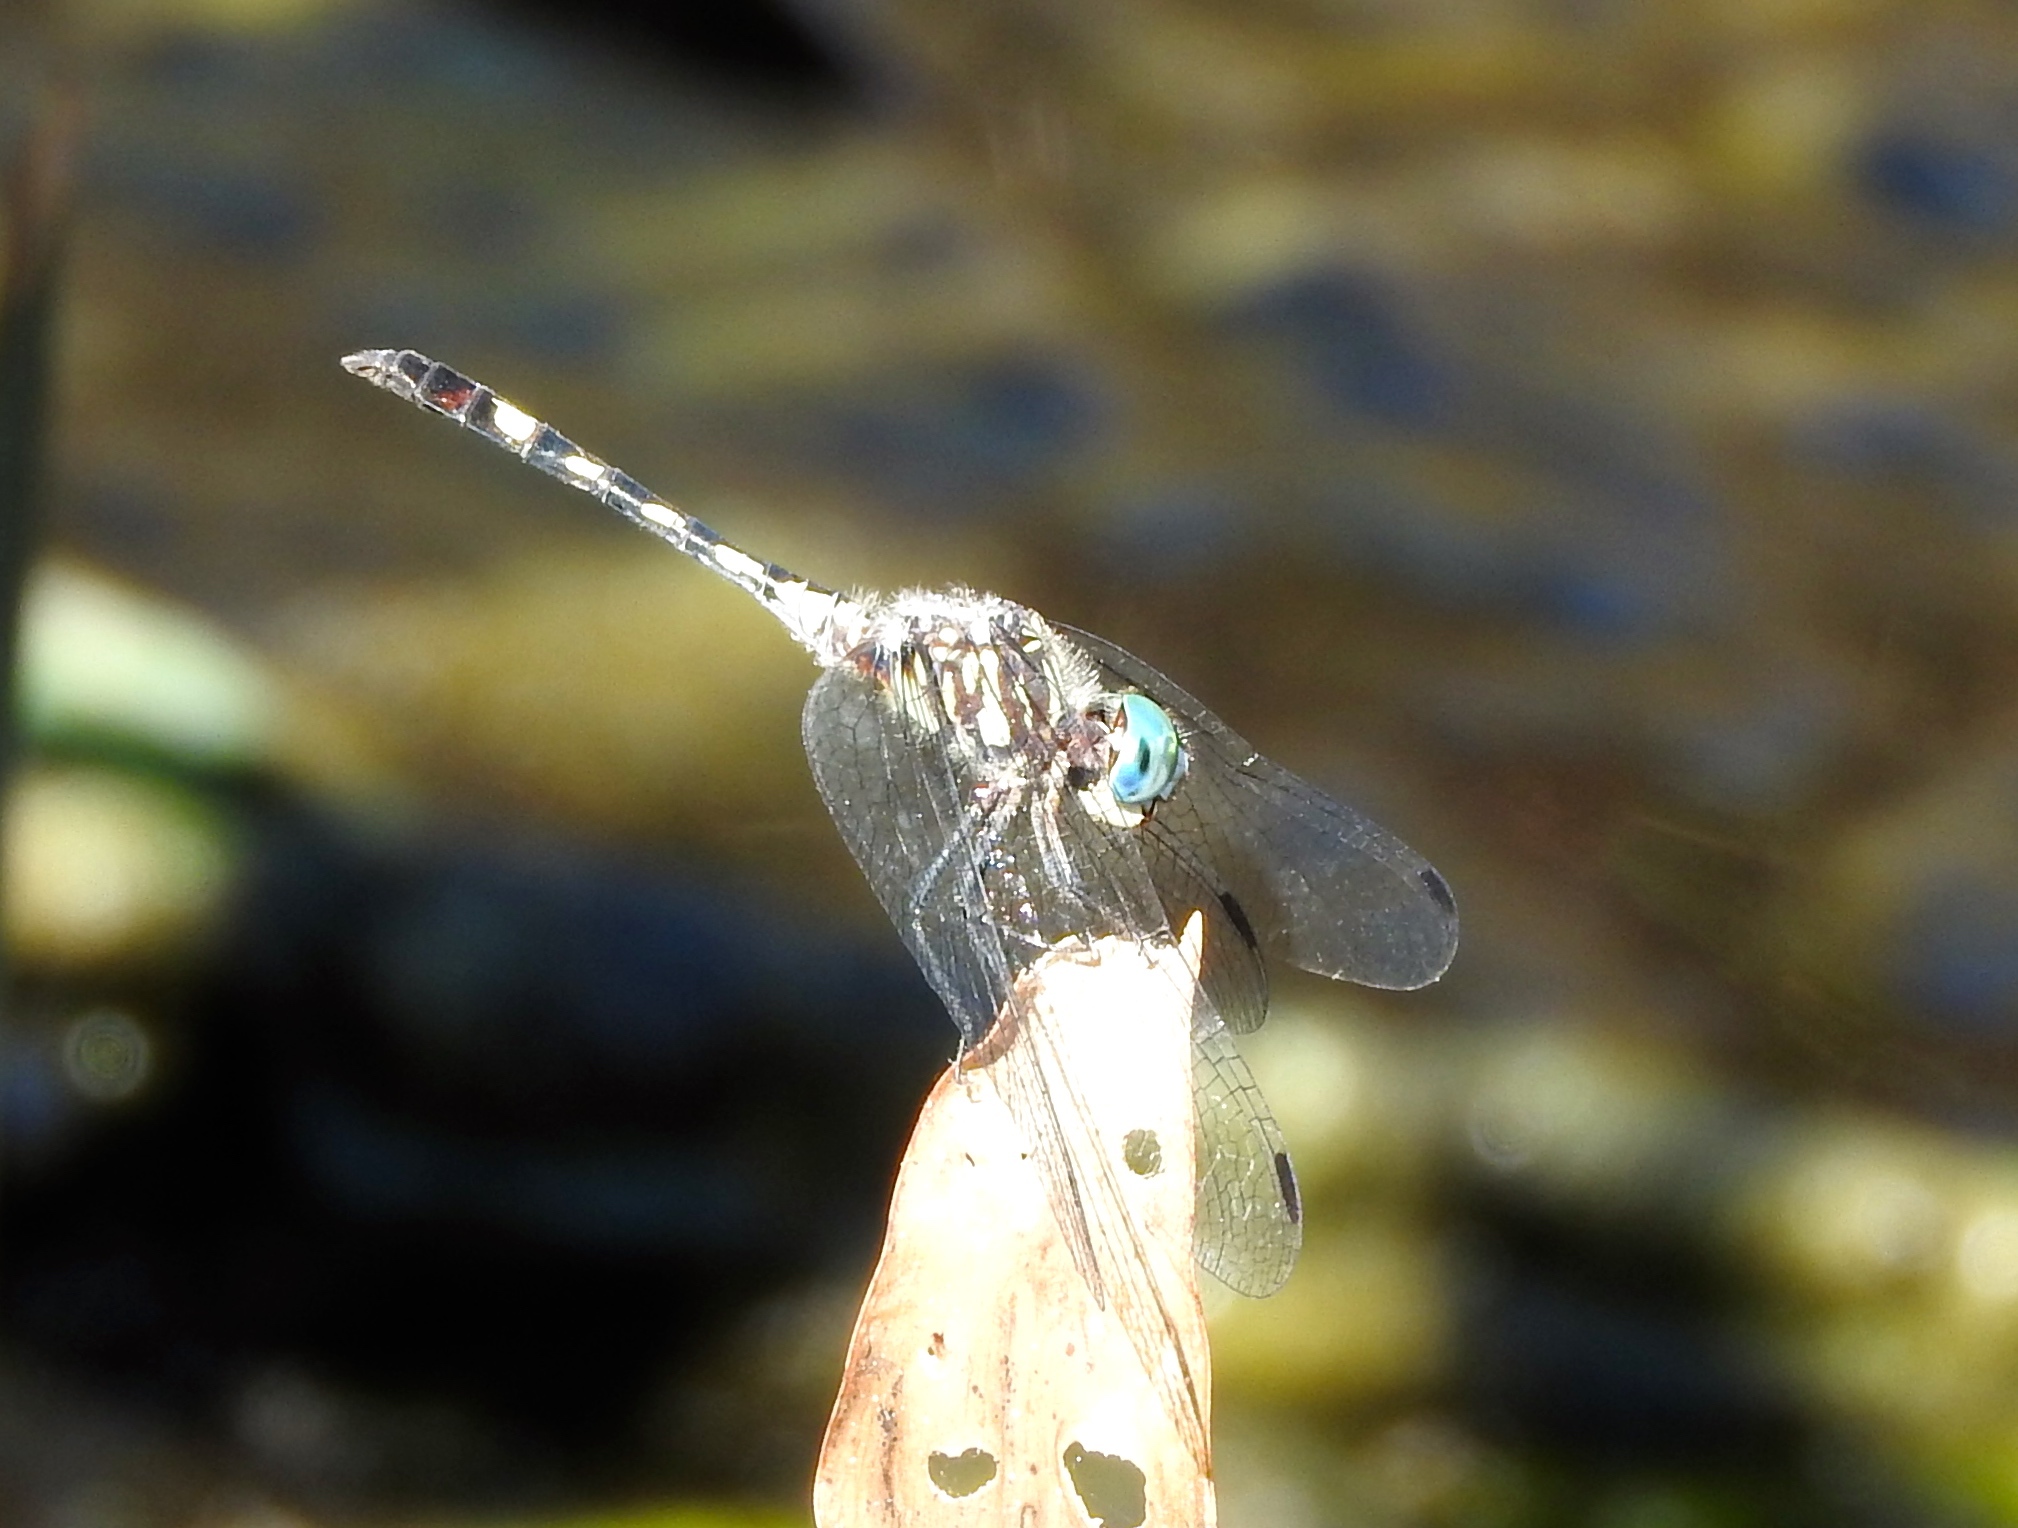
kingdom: Animalia
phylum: Arthropoda
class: Insecta
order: Odonata
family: Libellulidae
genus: Micrathyria
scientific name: Micrathyria
